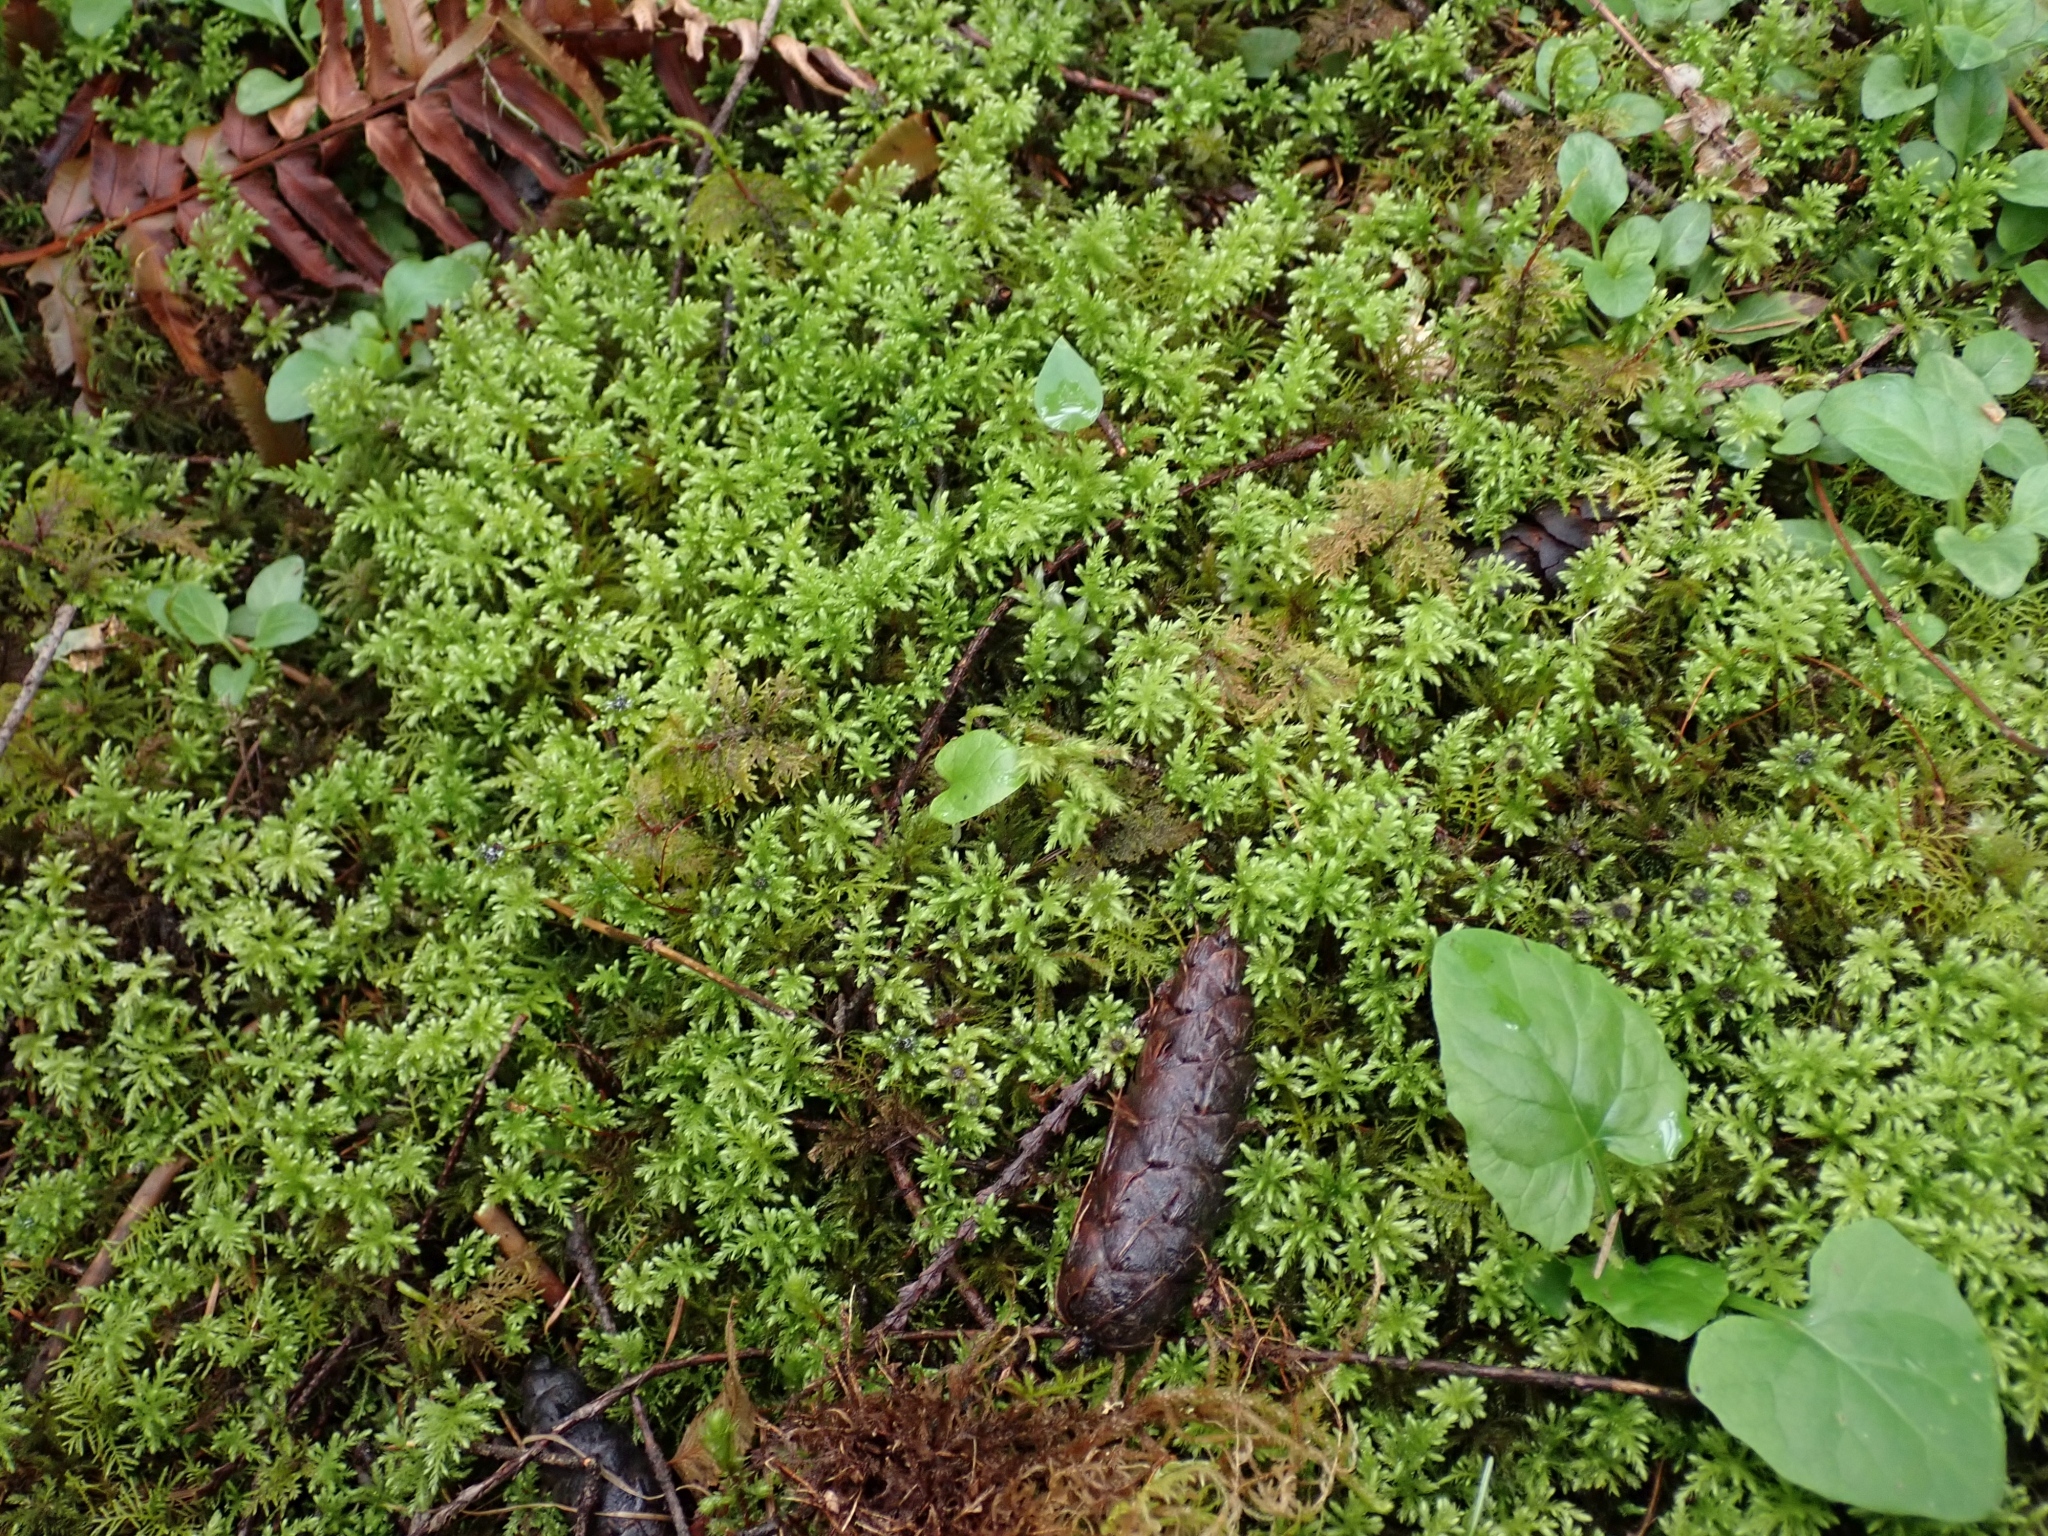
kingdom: Plantae
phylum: Bryophyta
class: Bryopsida
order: Bryales
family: Mniaceae
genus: Leucolepis
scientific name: Leucolepis acanthoneura
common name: Leucolepis umbrella moss
